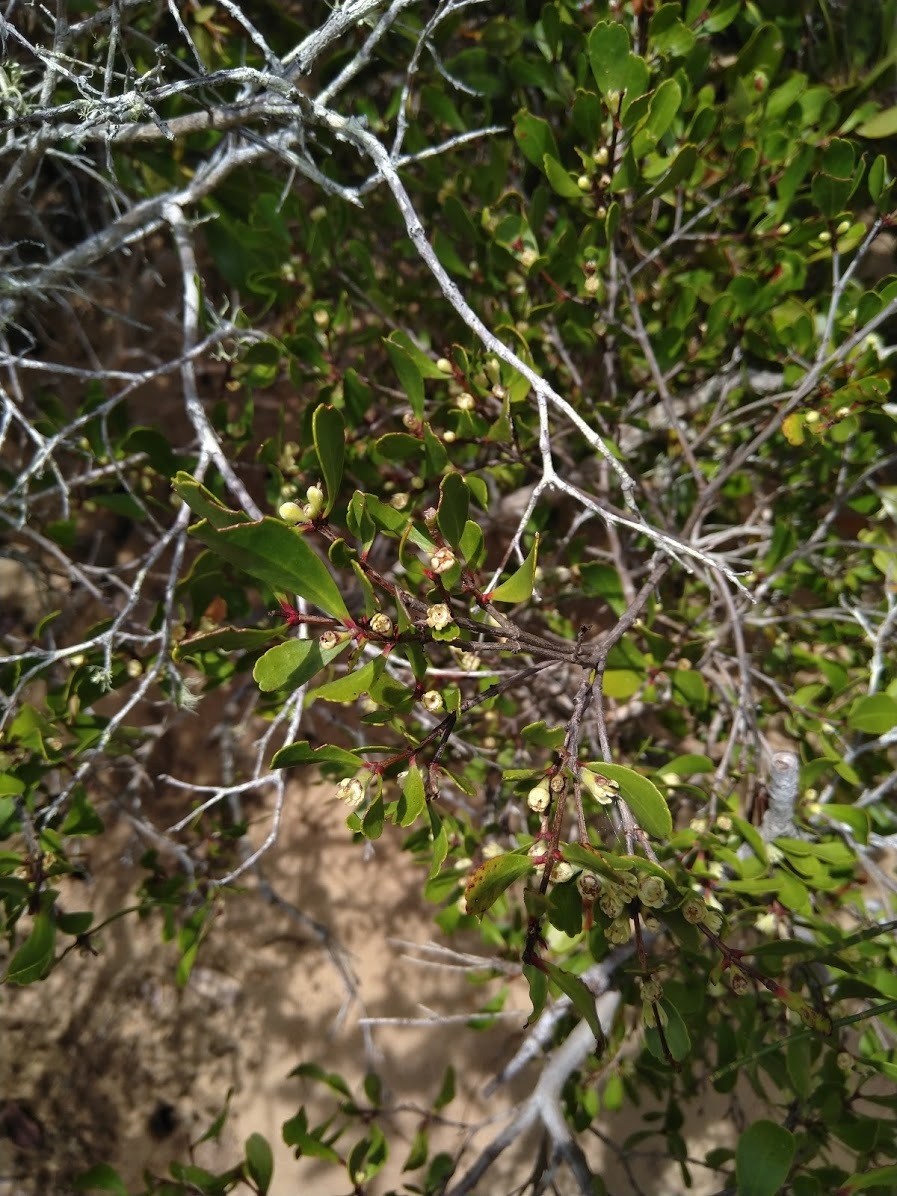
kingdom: Plantae
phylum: Tracheophyta
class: Magnoliopsida
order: Myrtales
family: Myrtaceae
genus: Osbornia
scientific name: Osbornia octodonta
